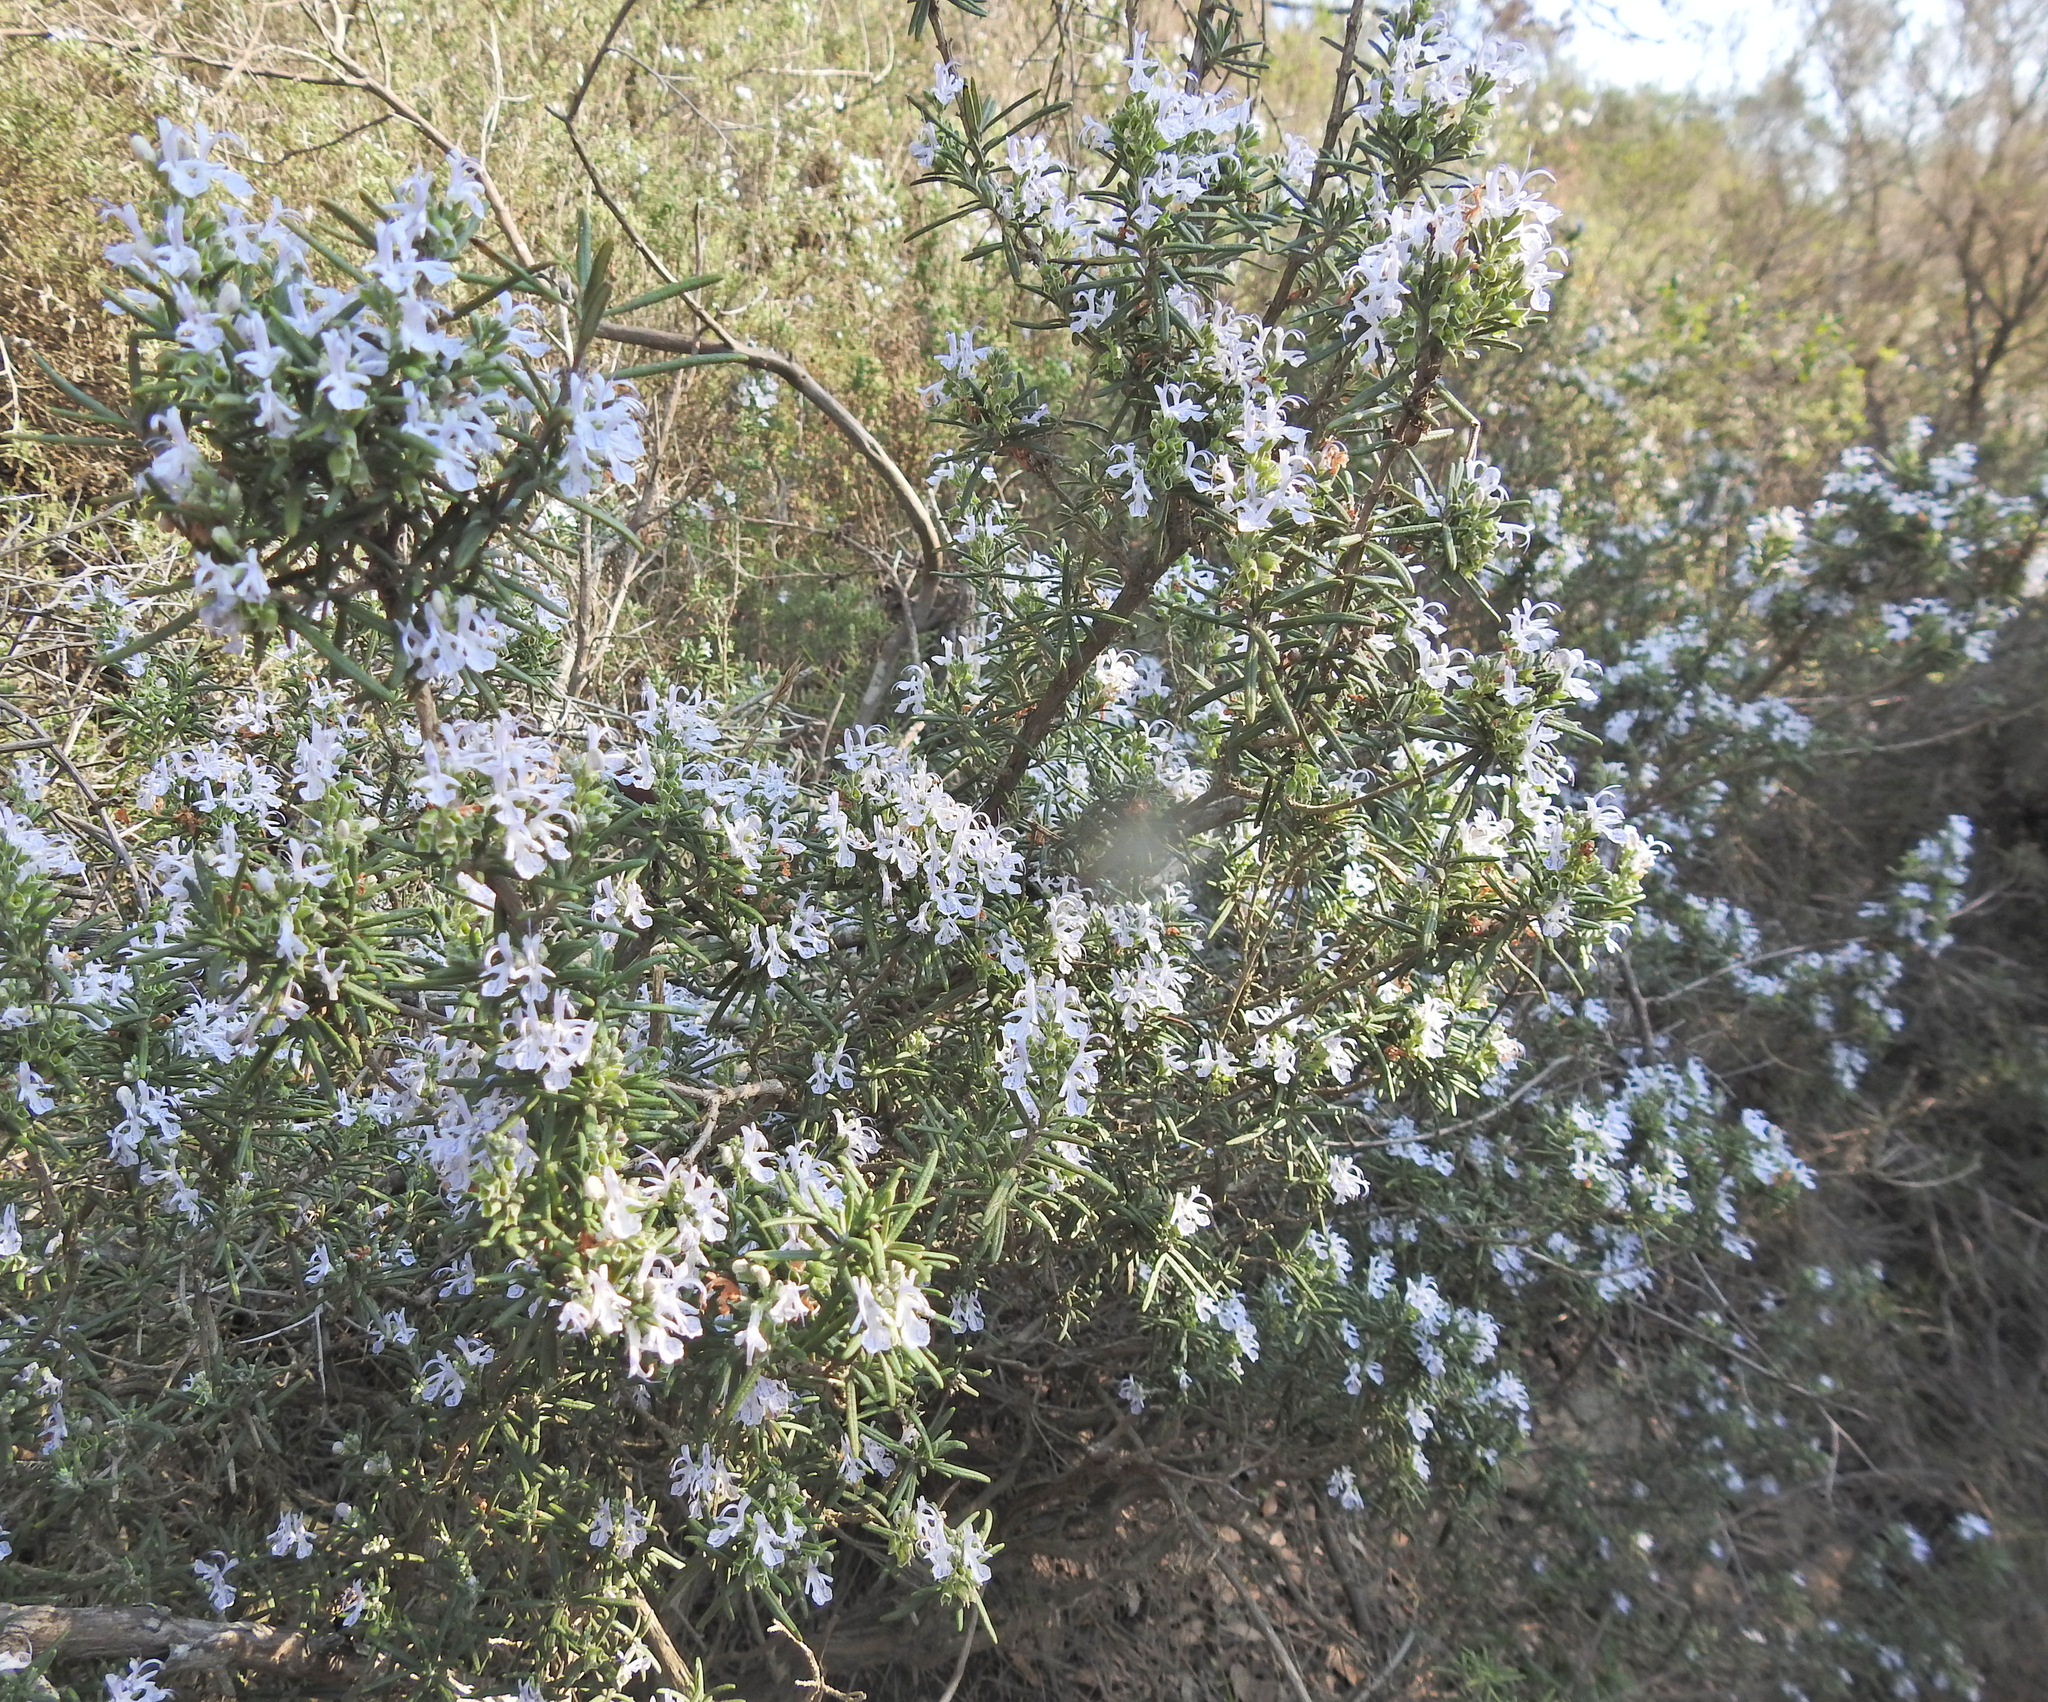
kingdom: Plantae
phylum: Tracheophyta
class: Magnoliopsida
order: Lamiales
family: Lamiaceae
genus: Salvia
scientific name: Salvia rosmarinus
